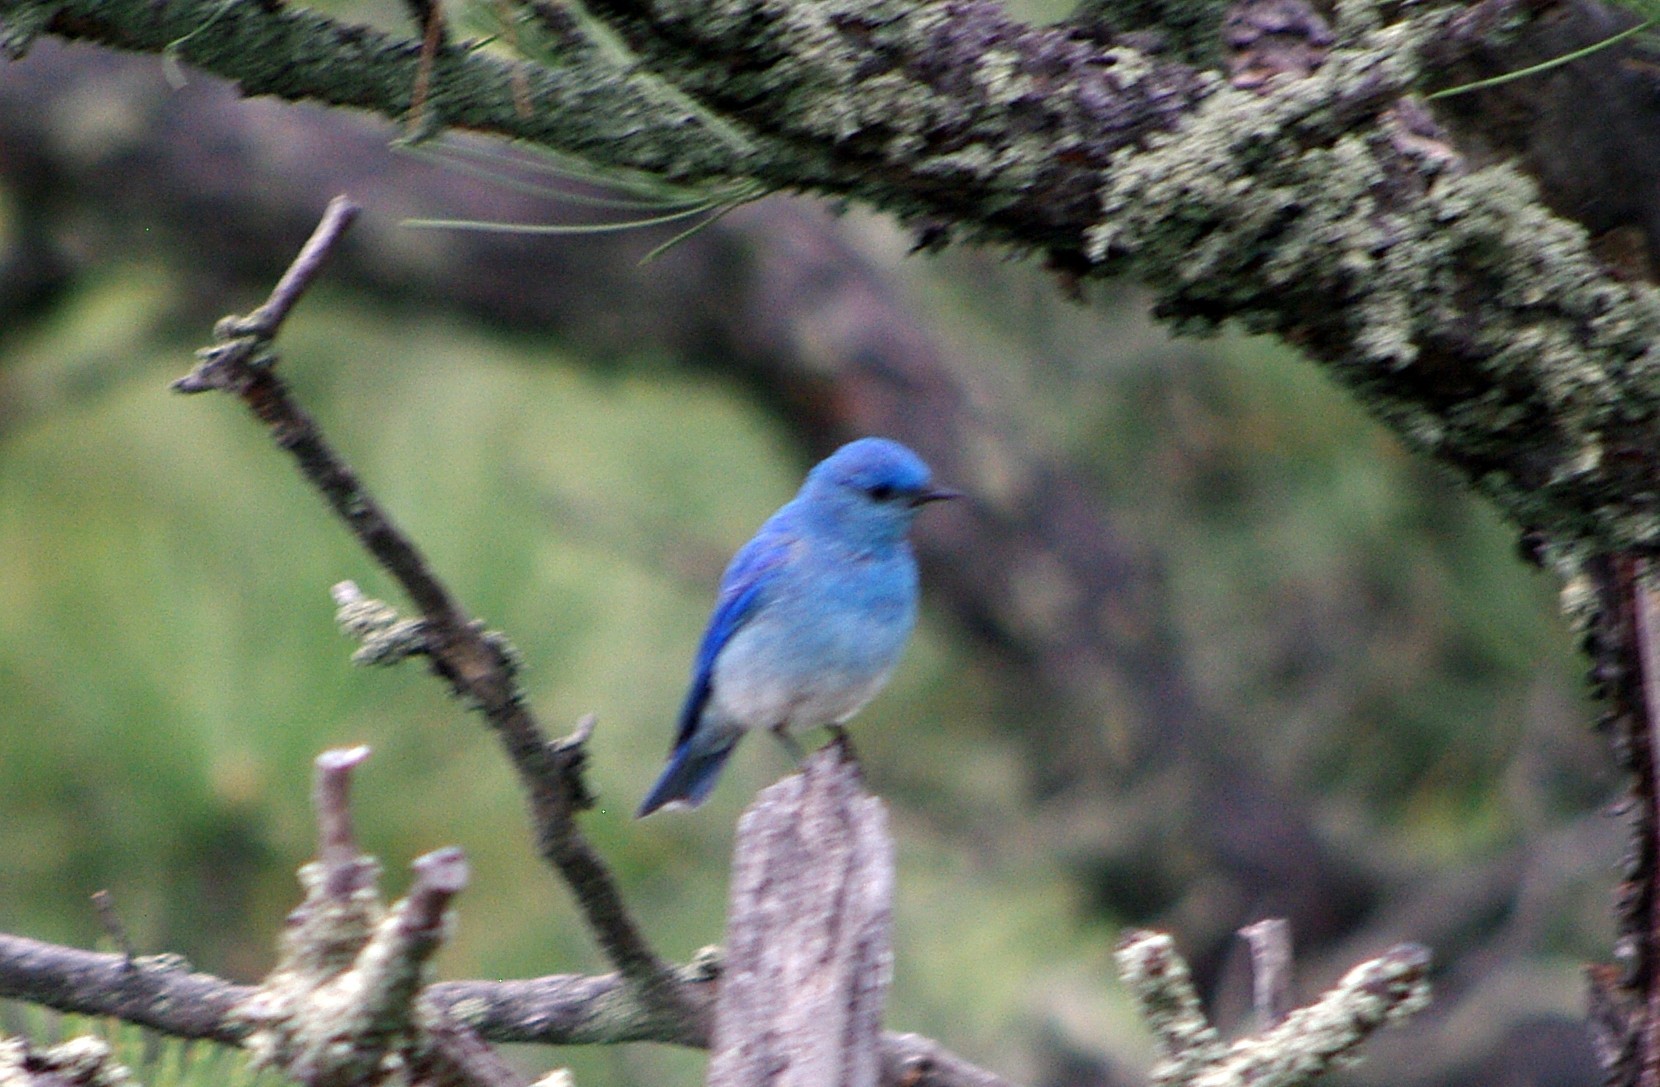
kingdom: Animalia
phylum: Chordata
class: Aves
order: Passeriformes
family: Turdidae
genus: Sialia
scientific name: Sialia currucoides
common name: Mountain bluebird
